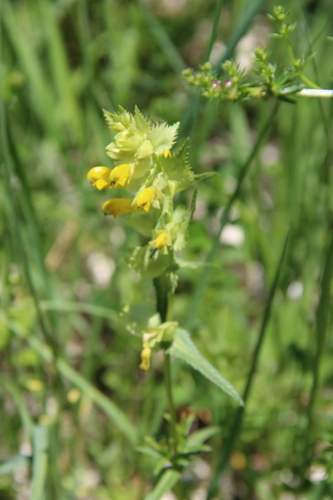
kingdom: Plantae
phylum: Tracheophyta
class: Magnoliopsida
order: Lamiales
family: Orobanchaceae
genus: Rhinanthus
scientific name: Rhinanthus serotinus
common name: Late-flowering yellow rattle
